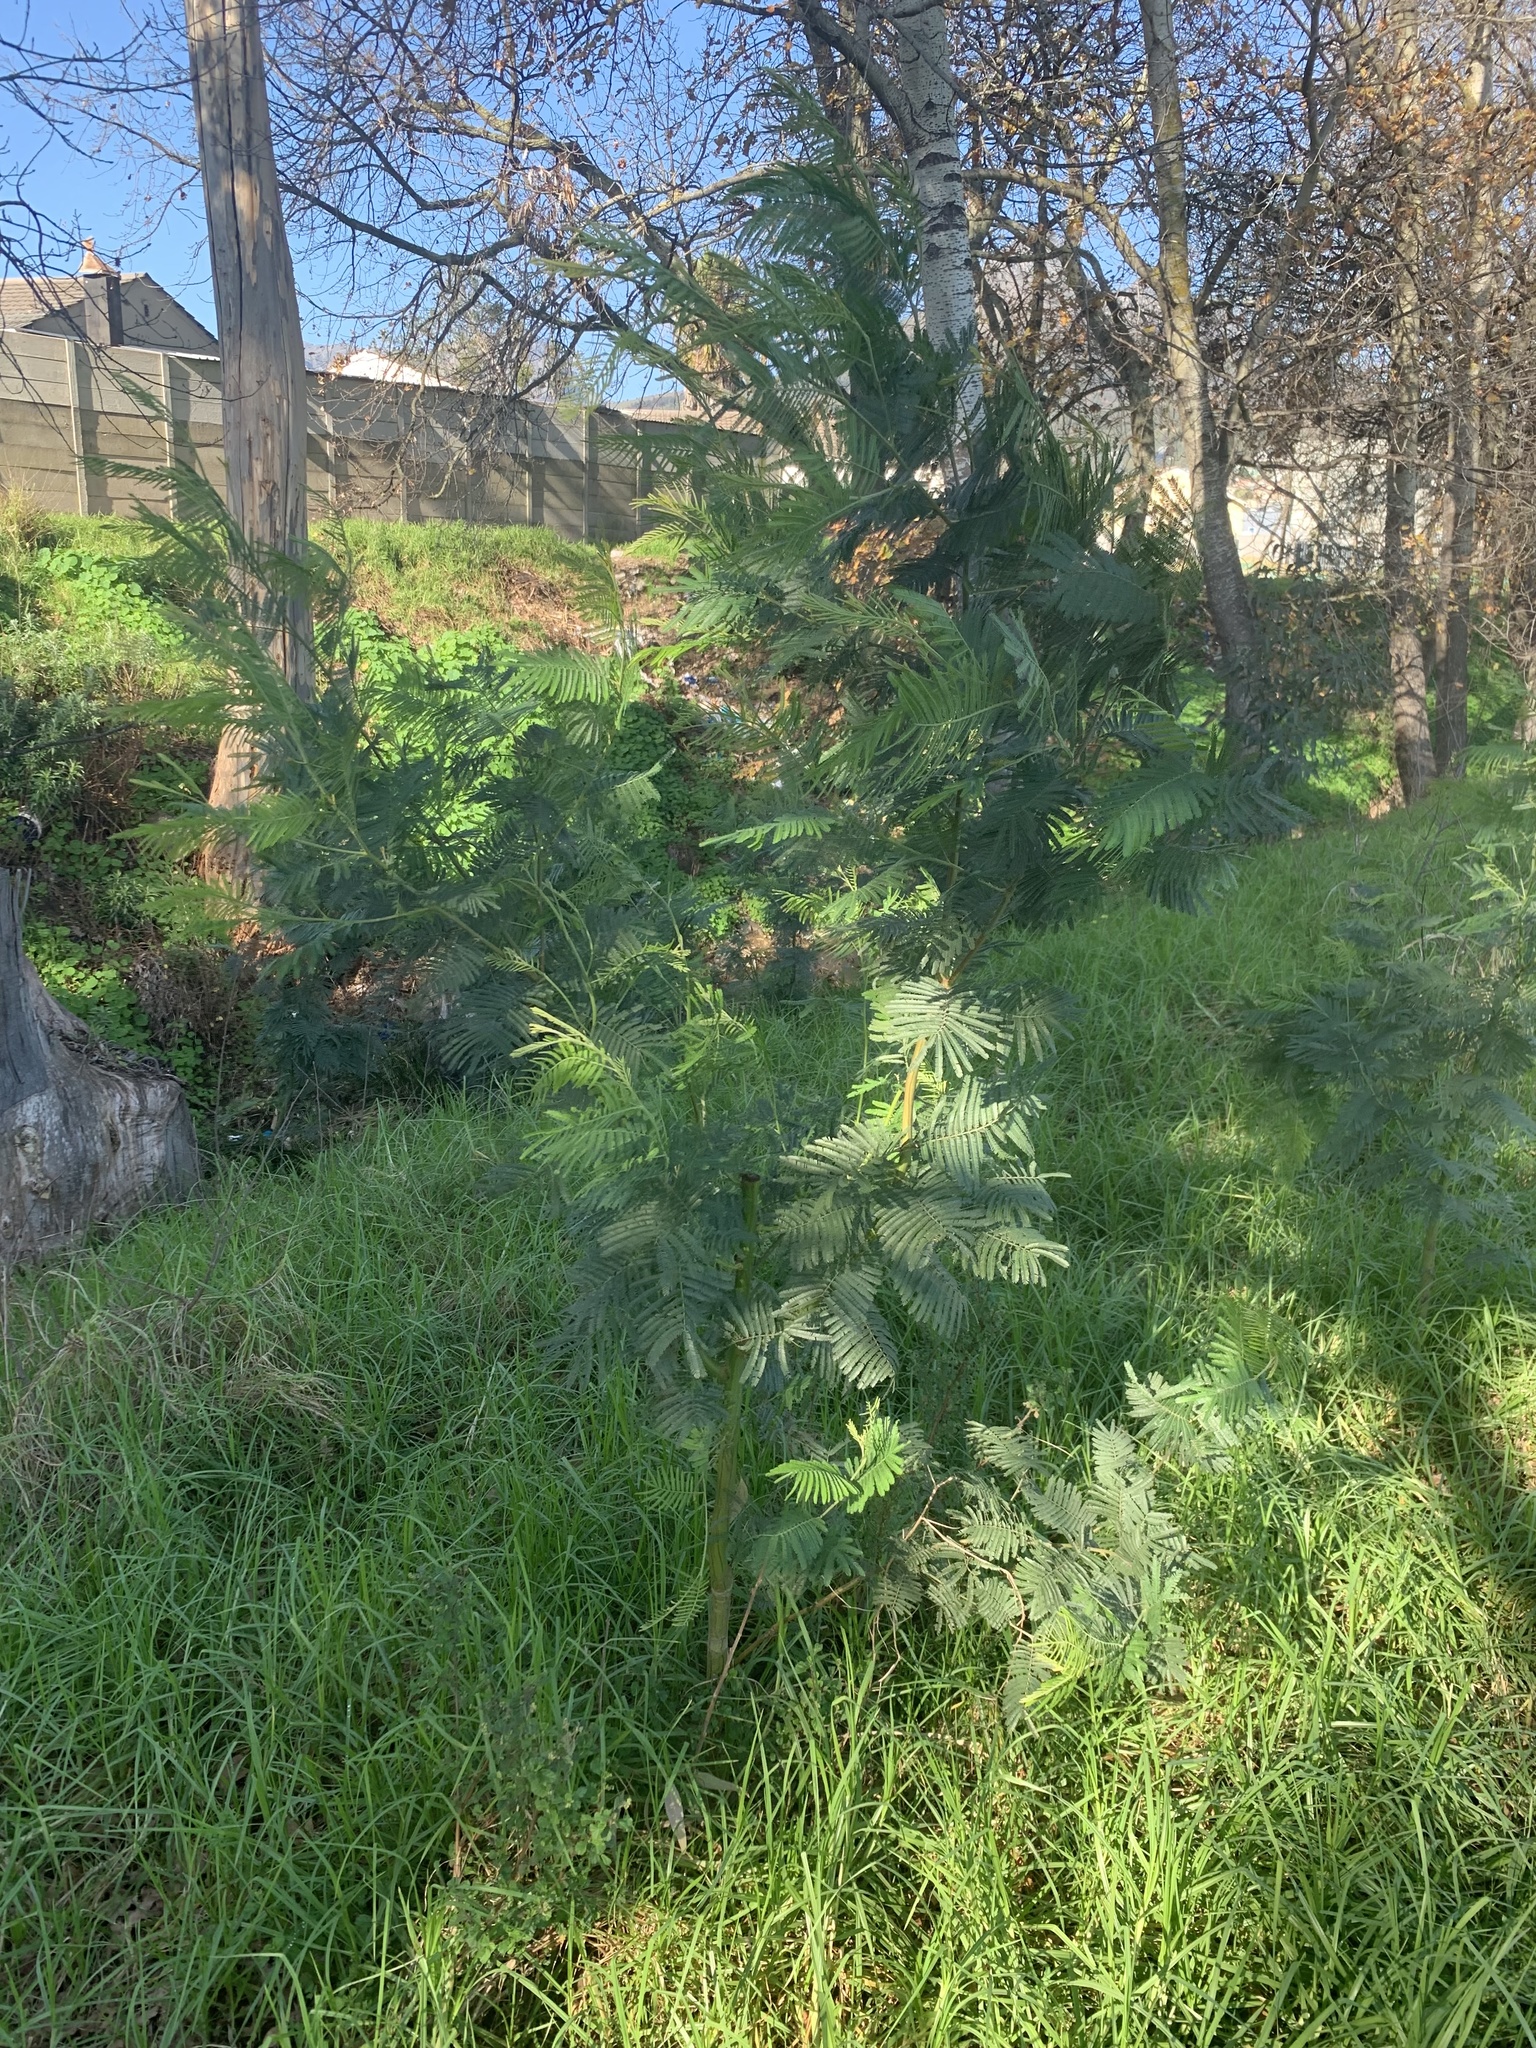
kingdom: Plantae
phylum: Tracheophyta
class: Magnoliopsida
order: Fabales
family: Fabaceae
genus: Acacia
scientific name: Acacia mearnsii
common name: Black wattle
